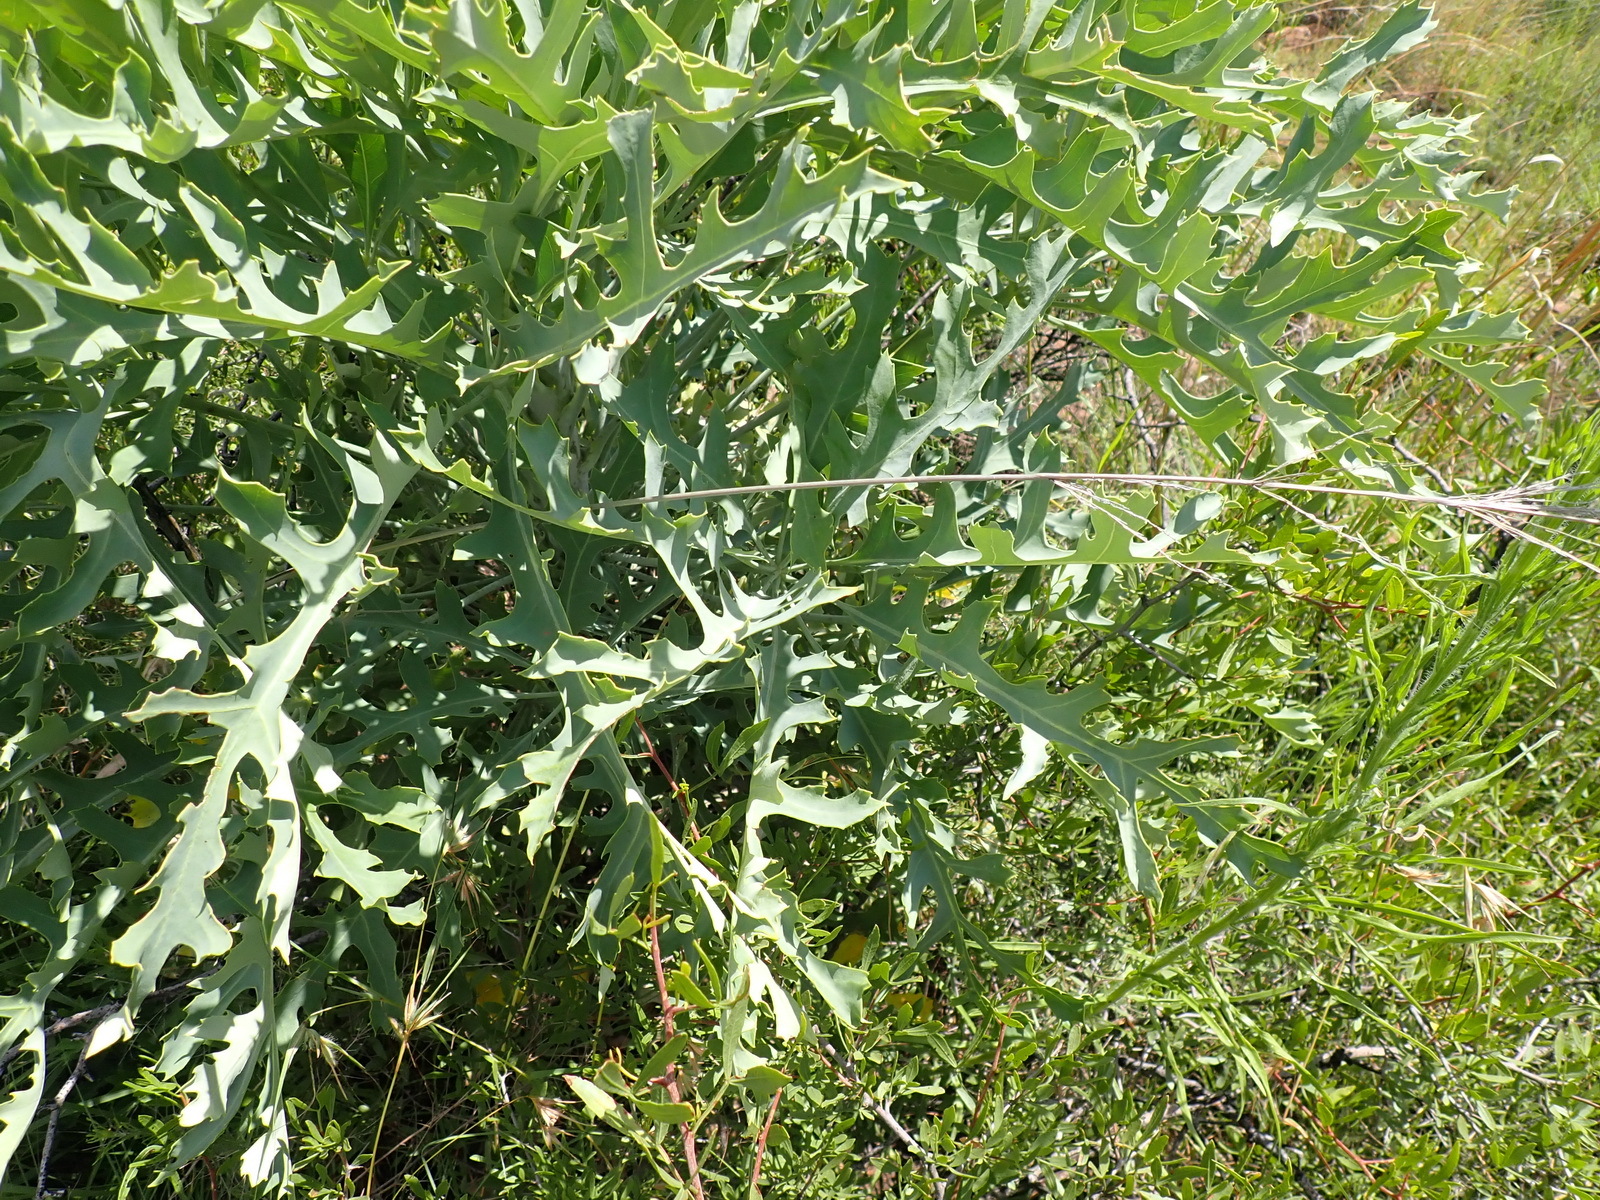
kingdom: Plantae
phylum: Tracheophyta
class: Magnoliopsida
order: Apiales
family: Araliaceae
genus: Cussonia
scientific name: Cussonia paniculata
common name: Cabbagetree
